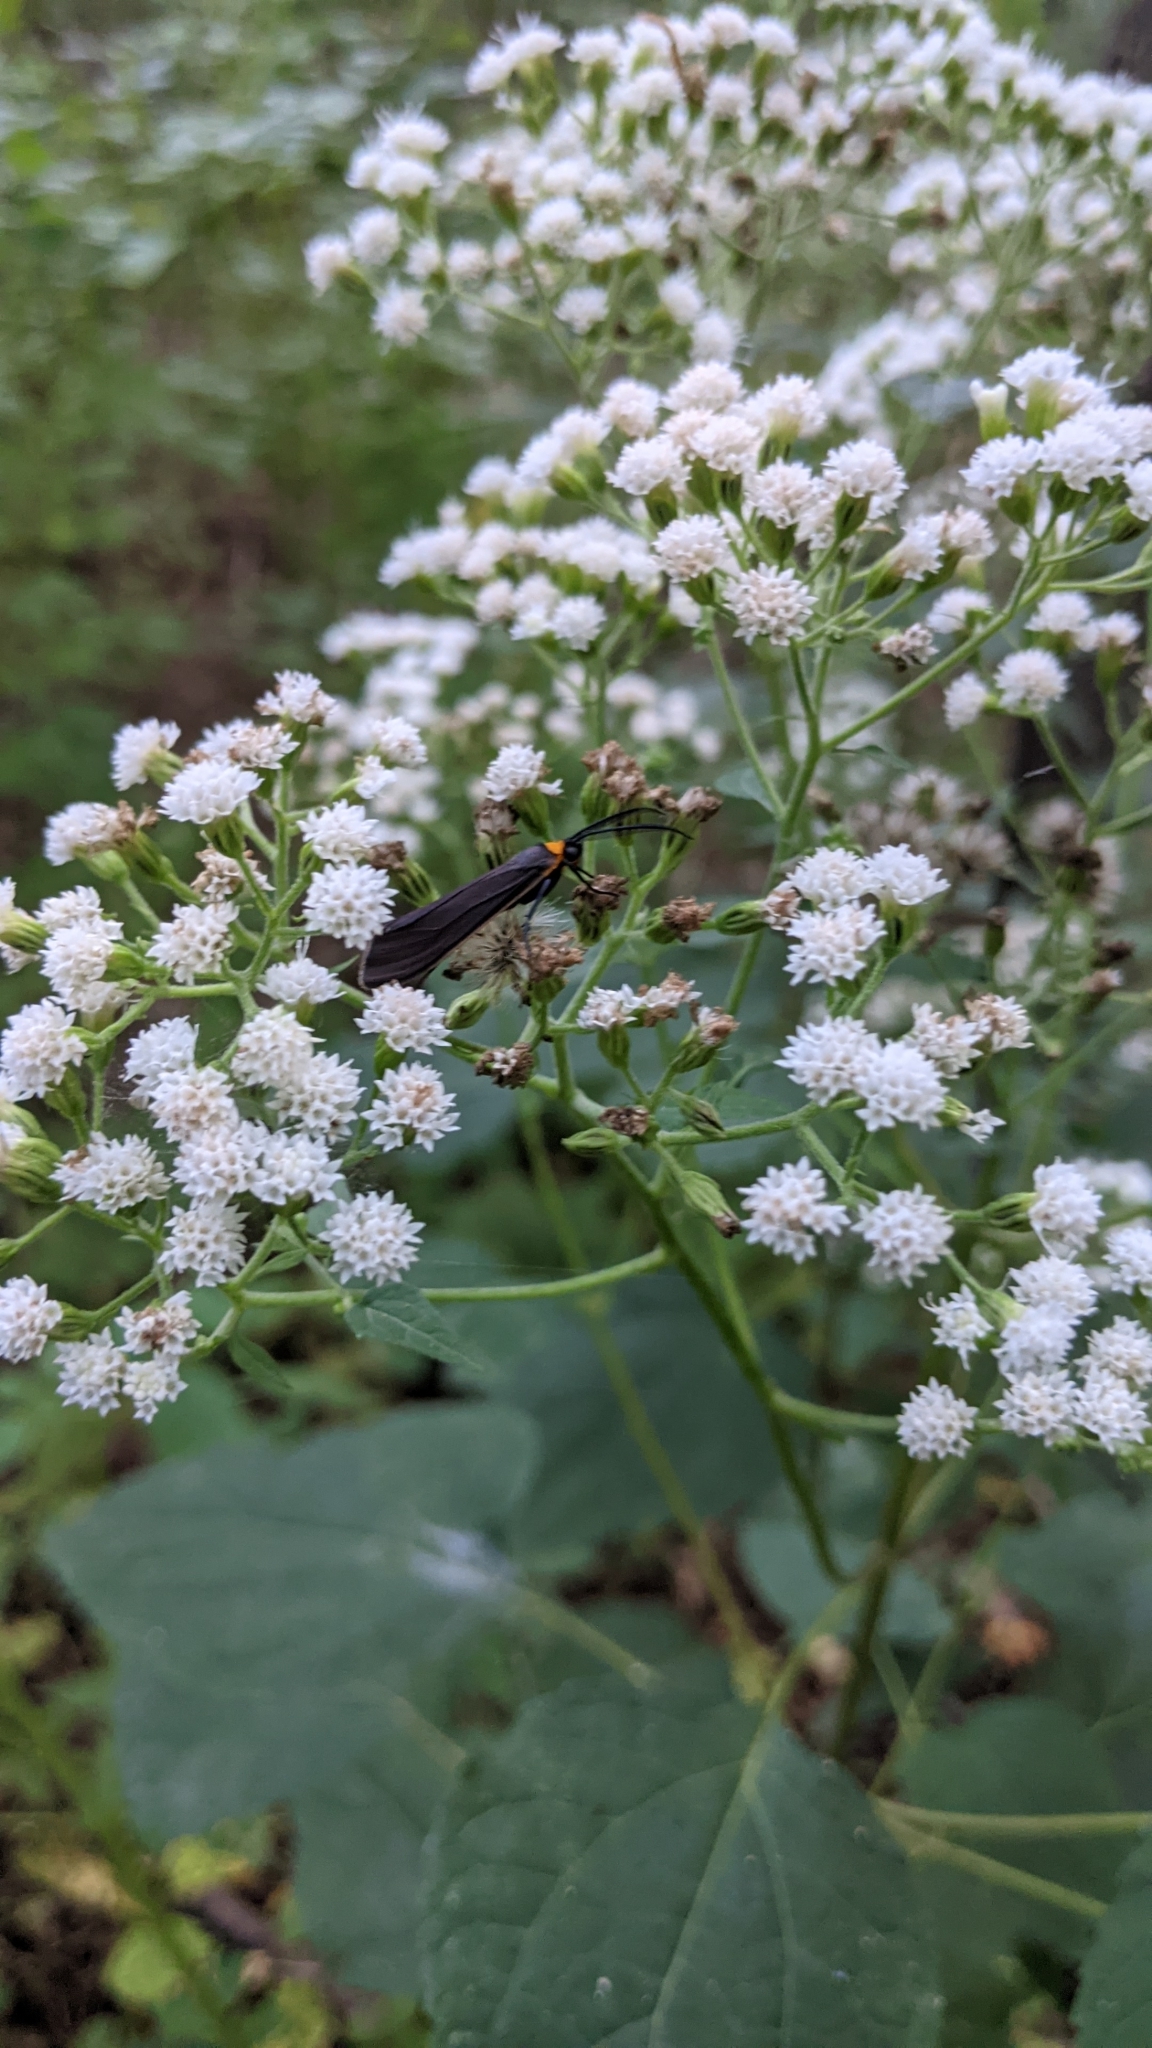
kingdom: Animalia
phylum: Arthropoda
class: Insecta
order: Lepidoptera
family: Erebidae
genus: Cisseps
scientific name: Cisseps fulvicollis
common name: Yellow-collared scape moth
